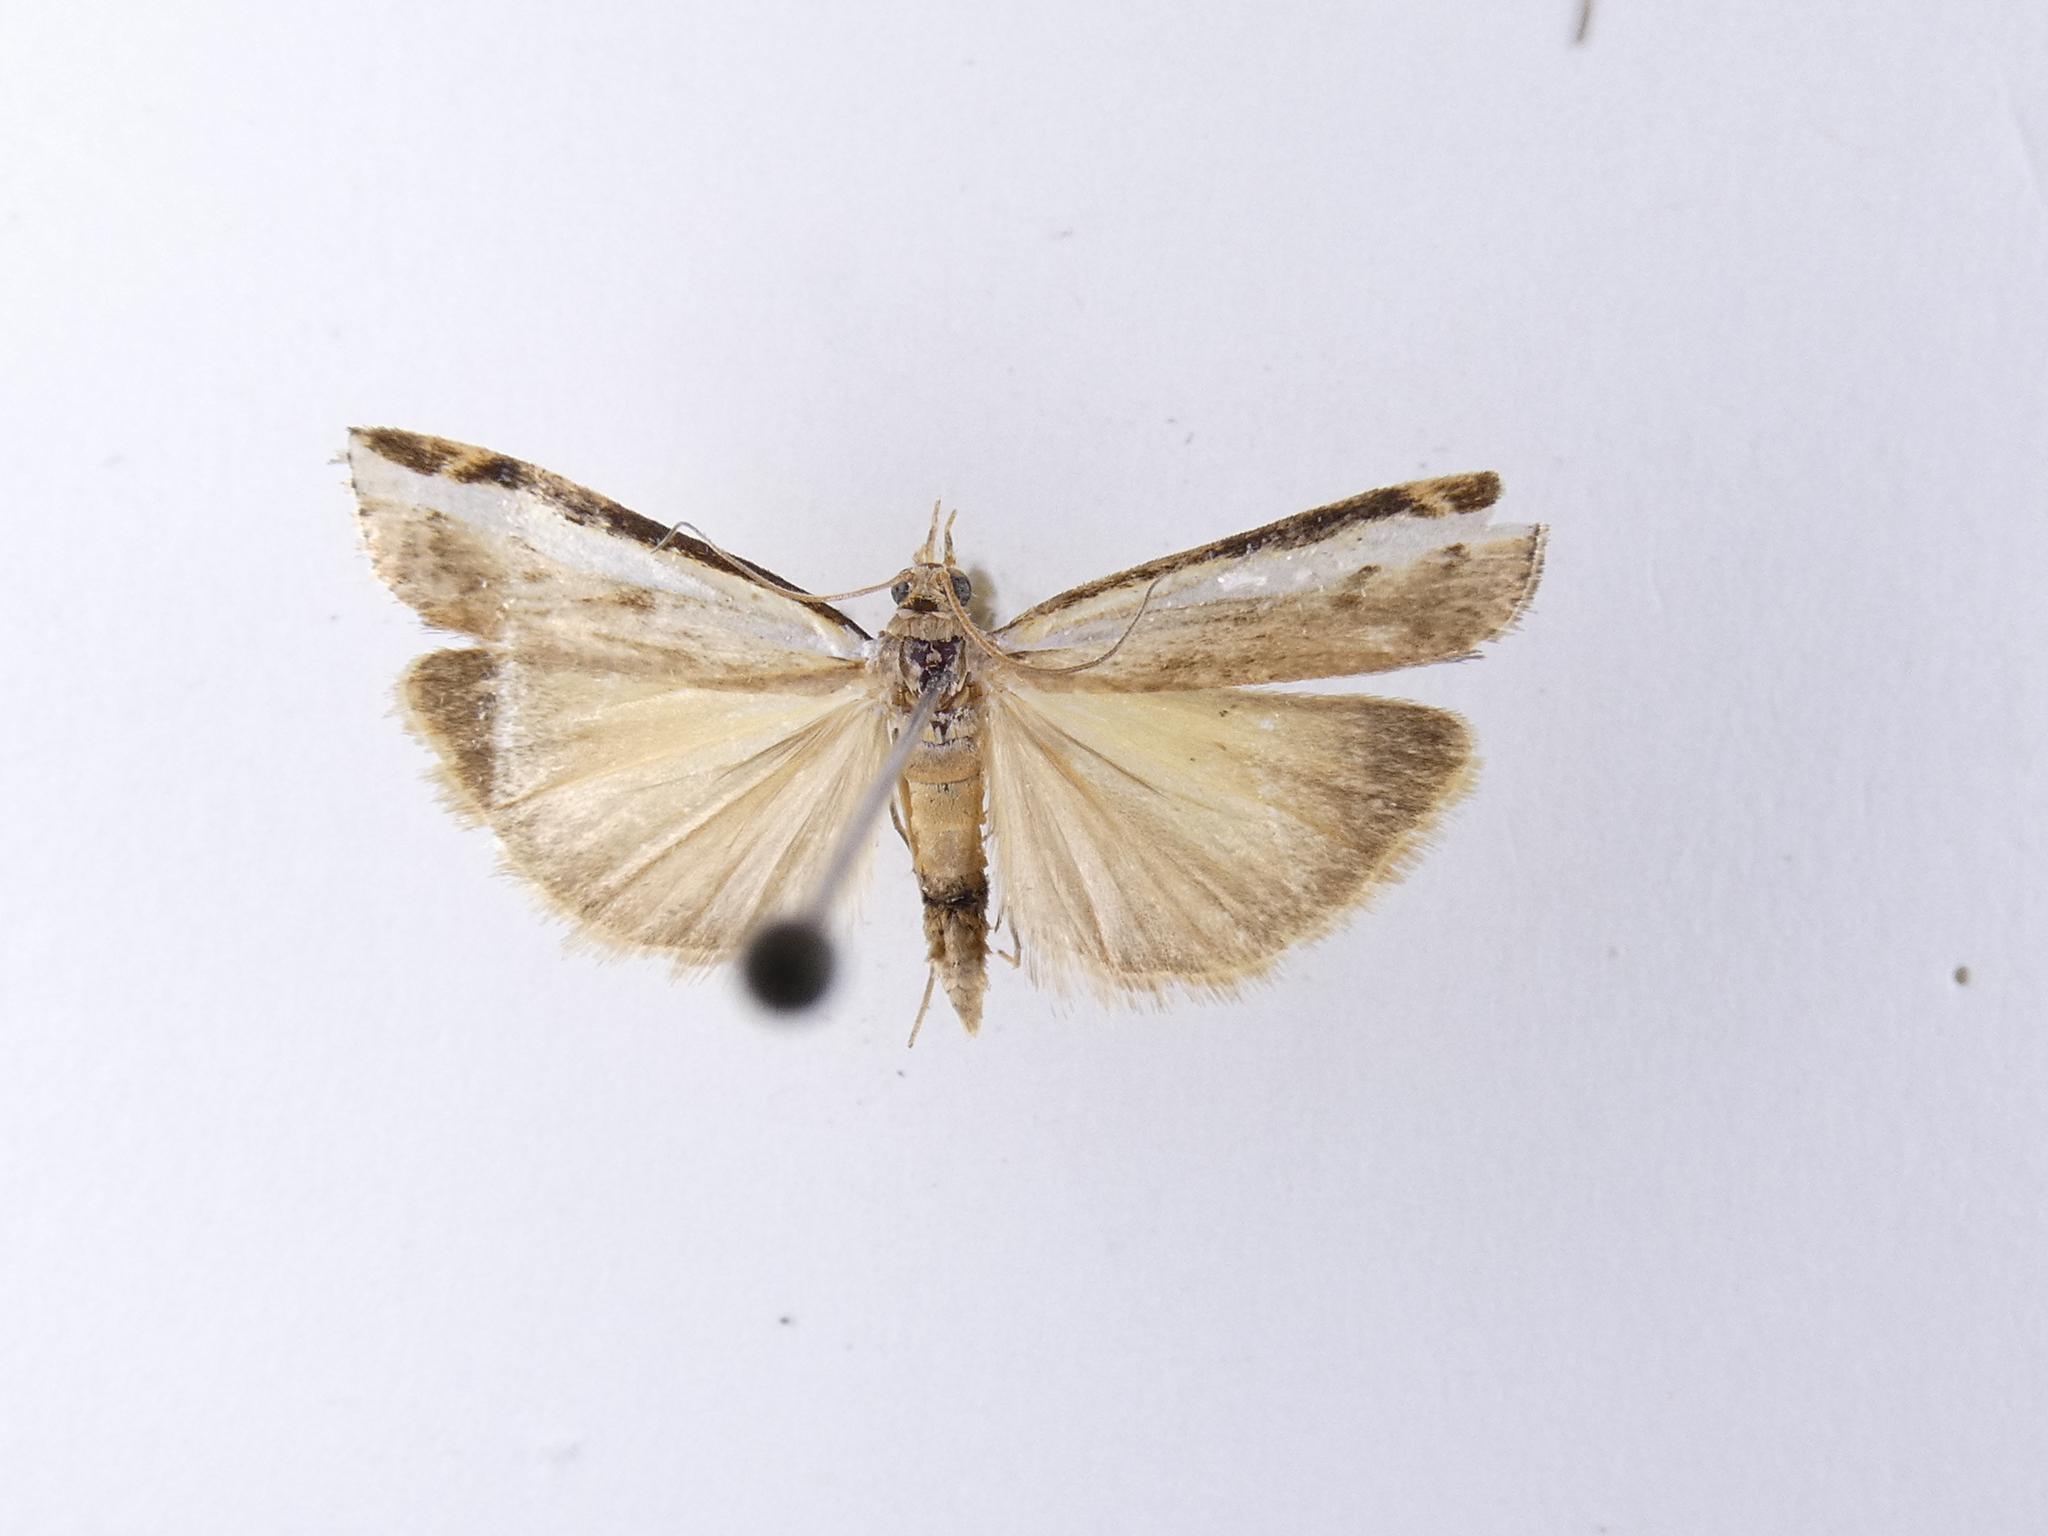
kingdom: Animalia
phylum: Arthropoda
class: Insecta
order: Lepidoptera
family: Crambidae
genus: Orocrambus
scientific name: Orocrambus flexuosellus
